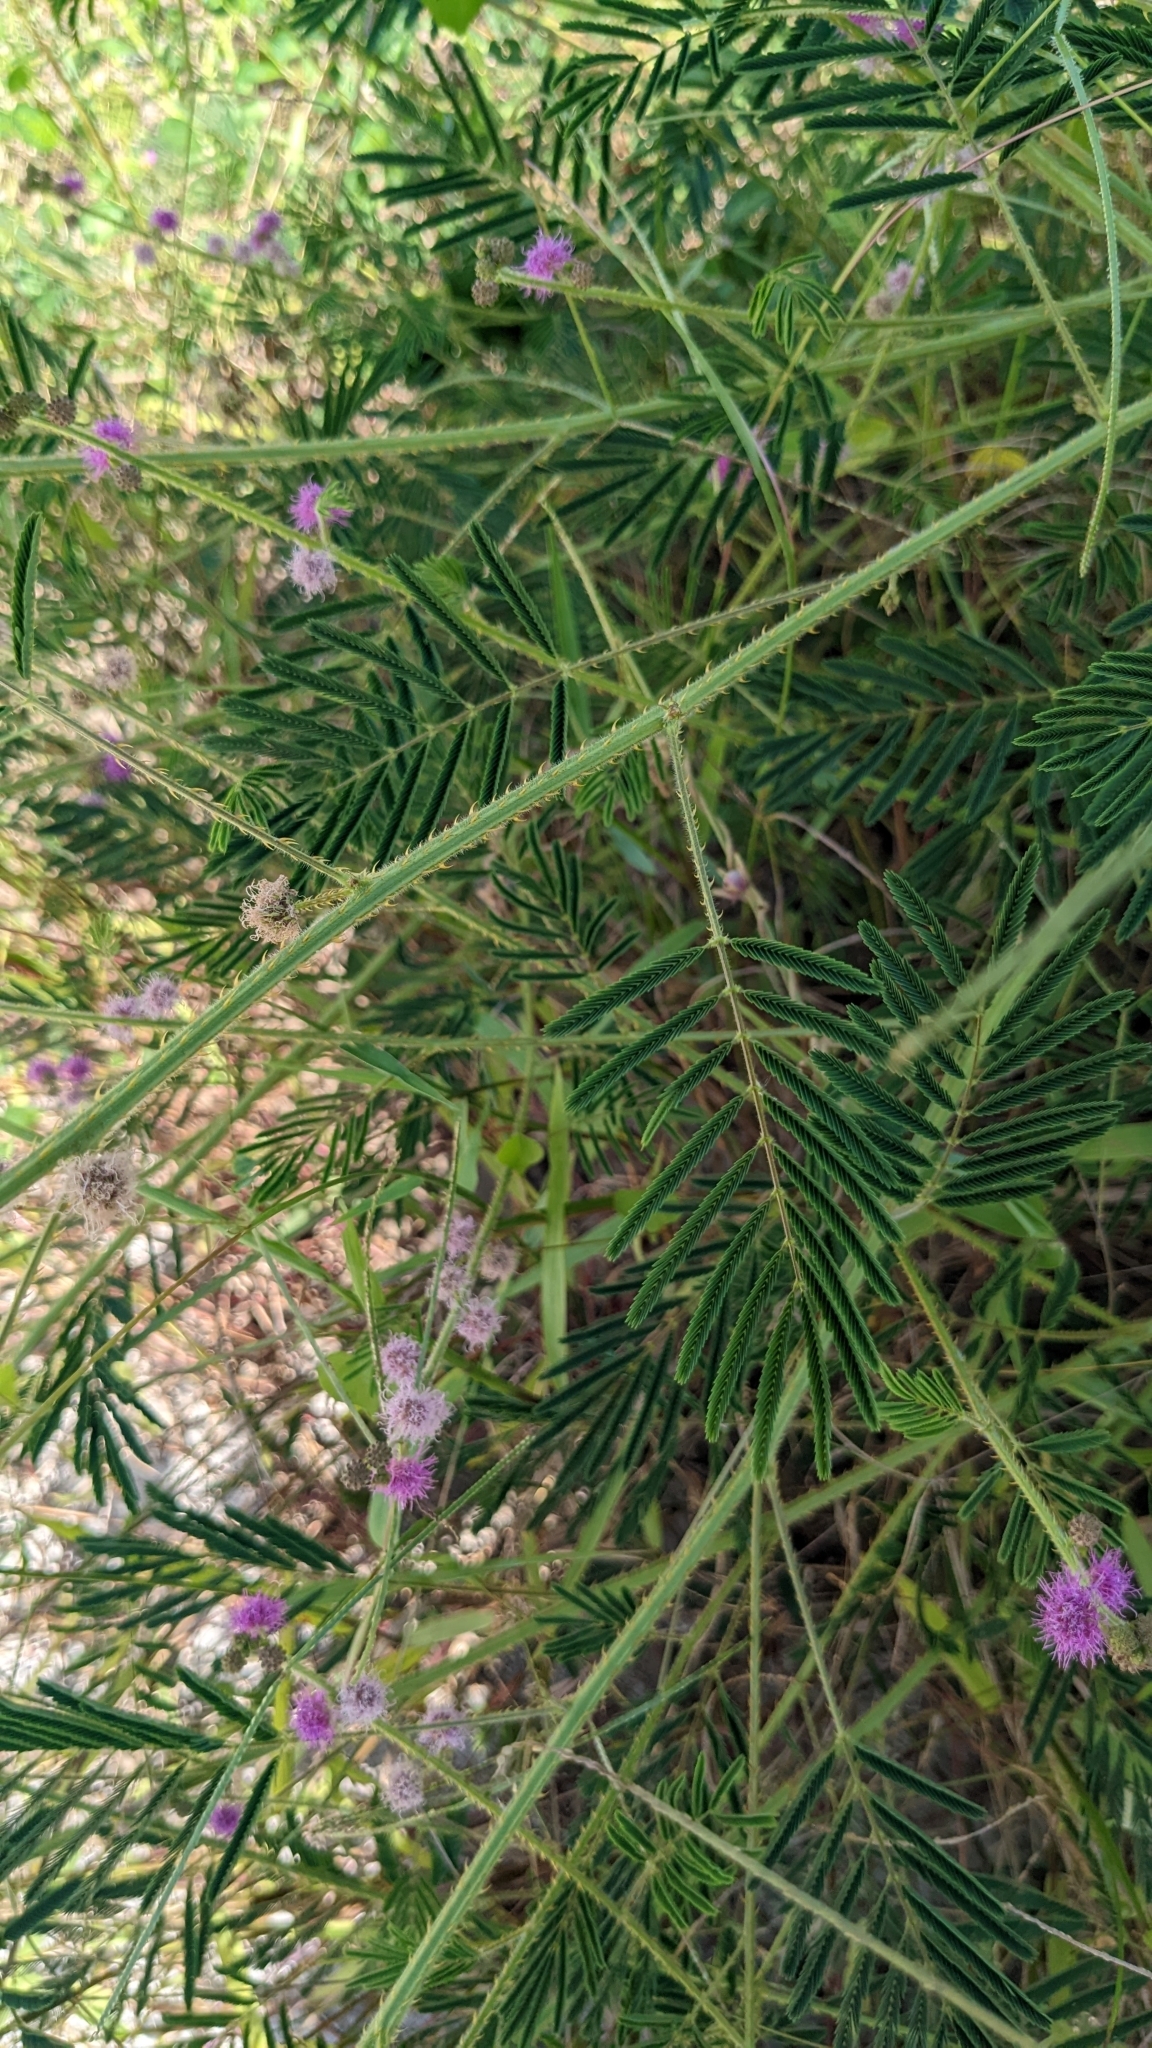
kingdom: Plantae
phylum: Tracheophyta
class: Magnoliopsida
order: Fabales
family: Fabaceae
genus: Mimosa
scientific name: Mimosa diplotricha
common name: Giant sensitive-plant
